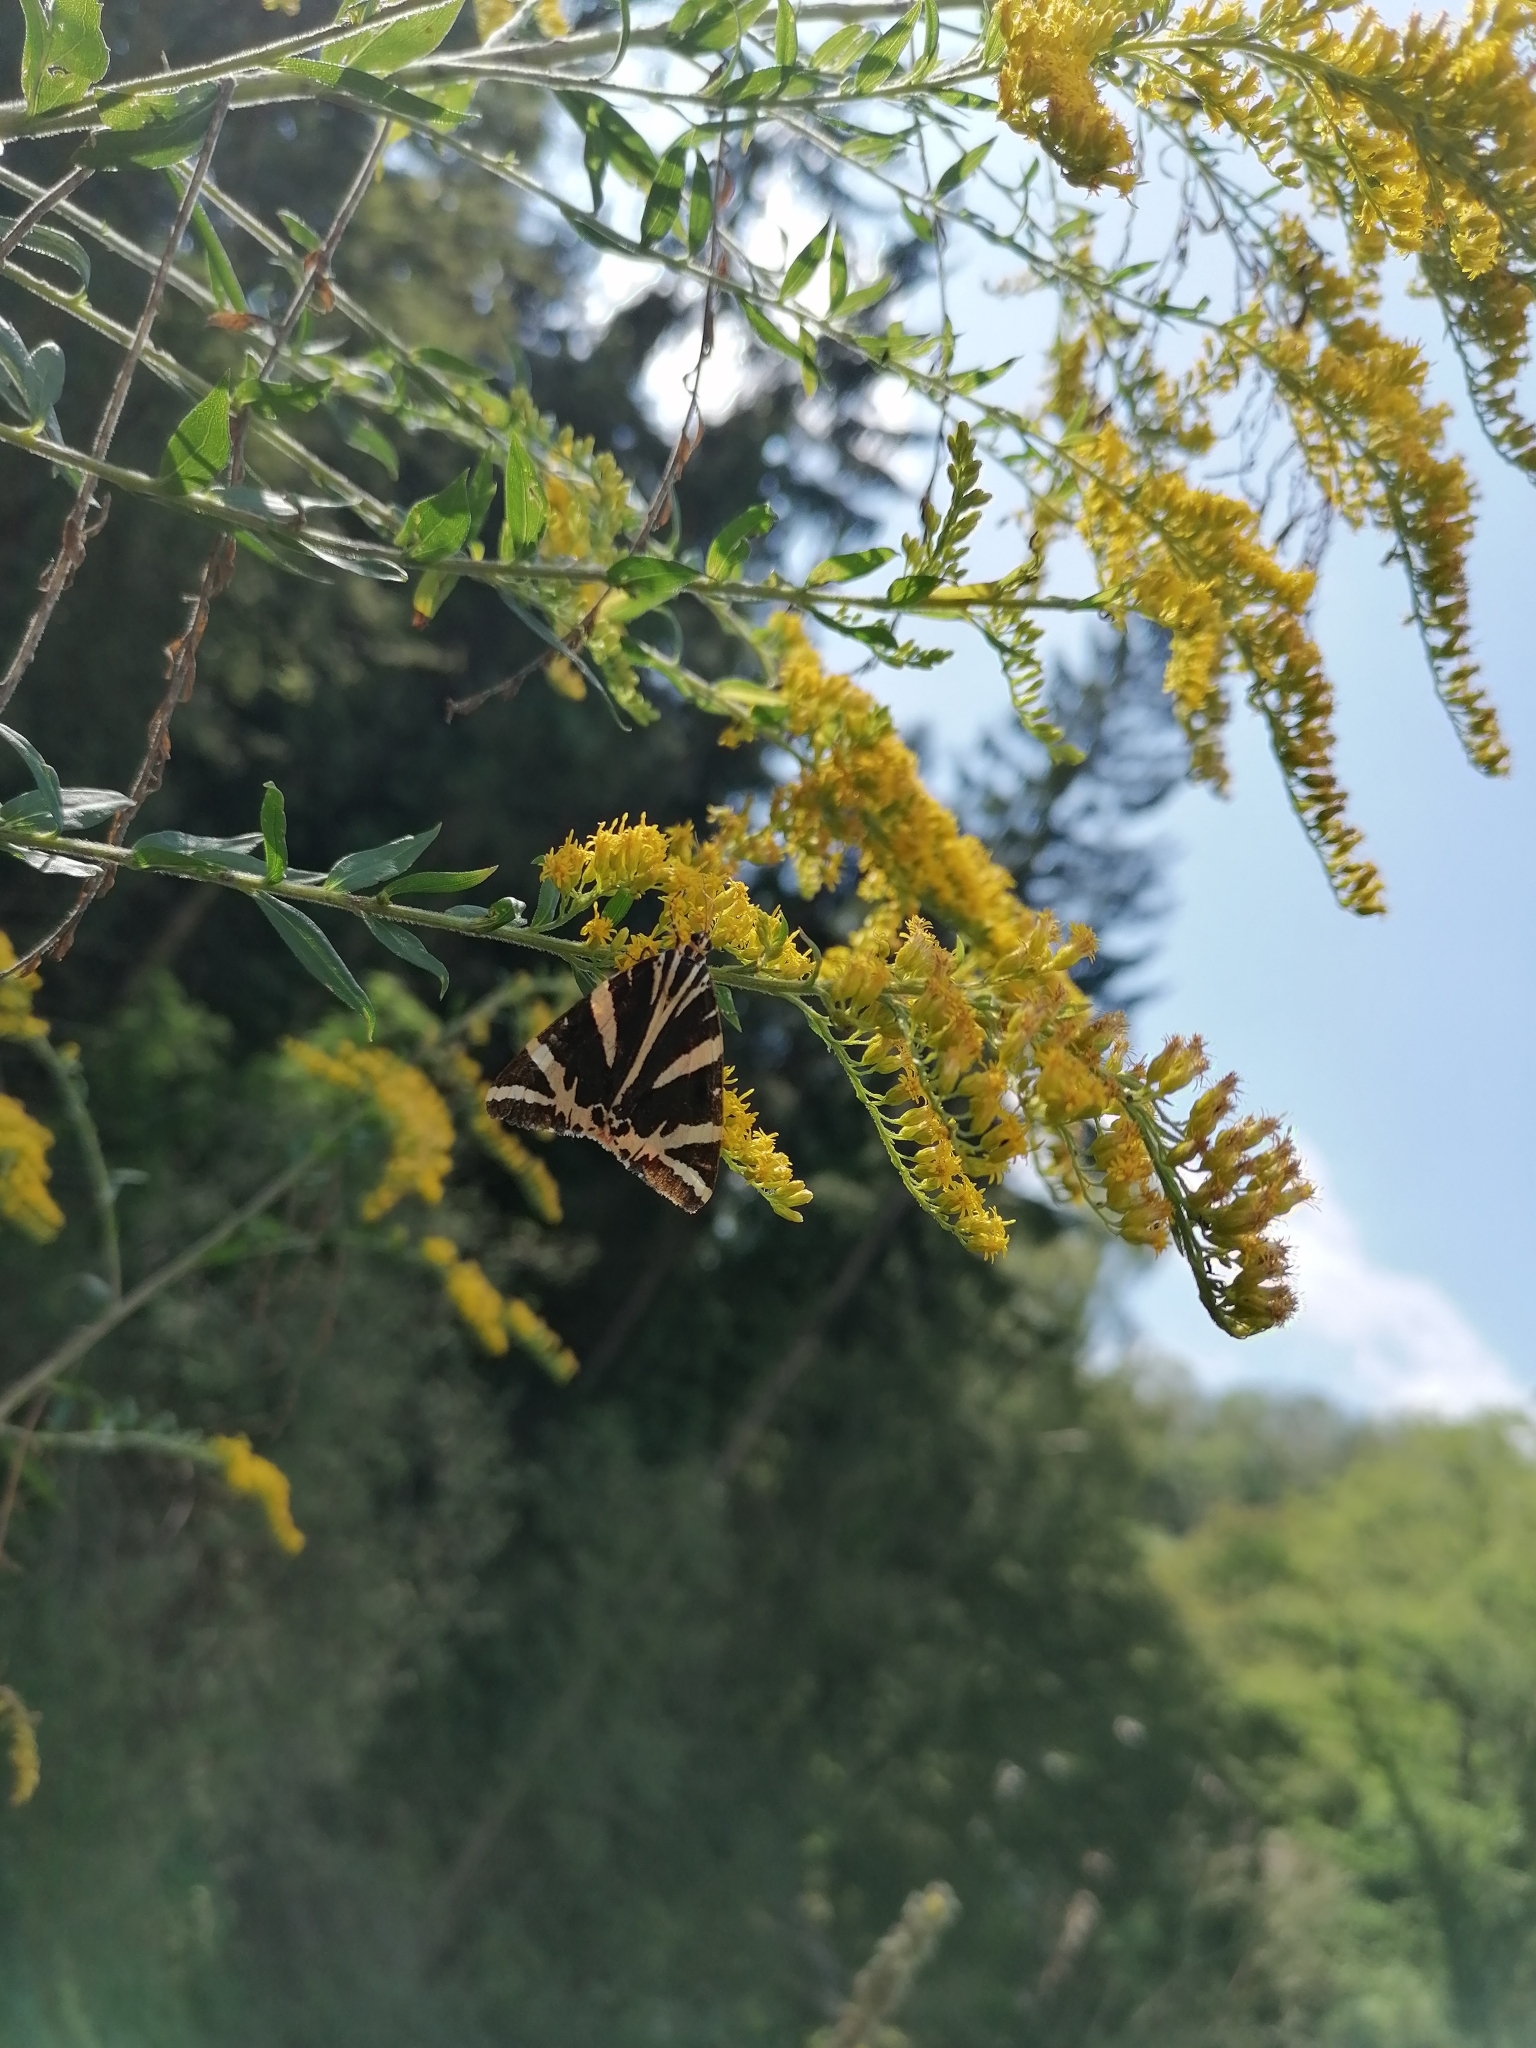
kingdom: Animalia
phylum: Arthropoda
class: Insecta
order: Lepidoptera
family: Erebidae
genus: Euplagia
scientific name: Euplagia quadripunctaria
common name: Jersey tiger
